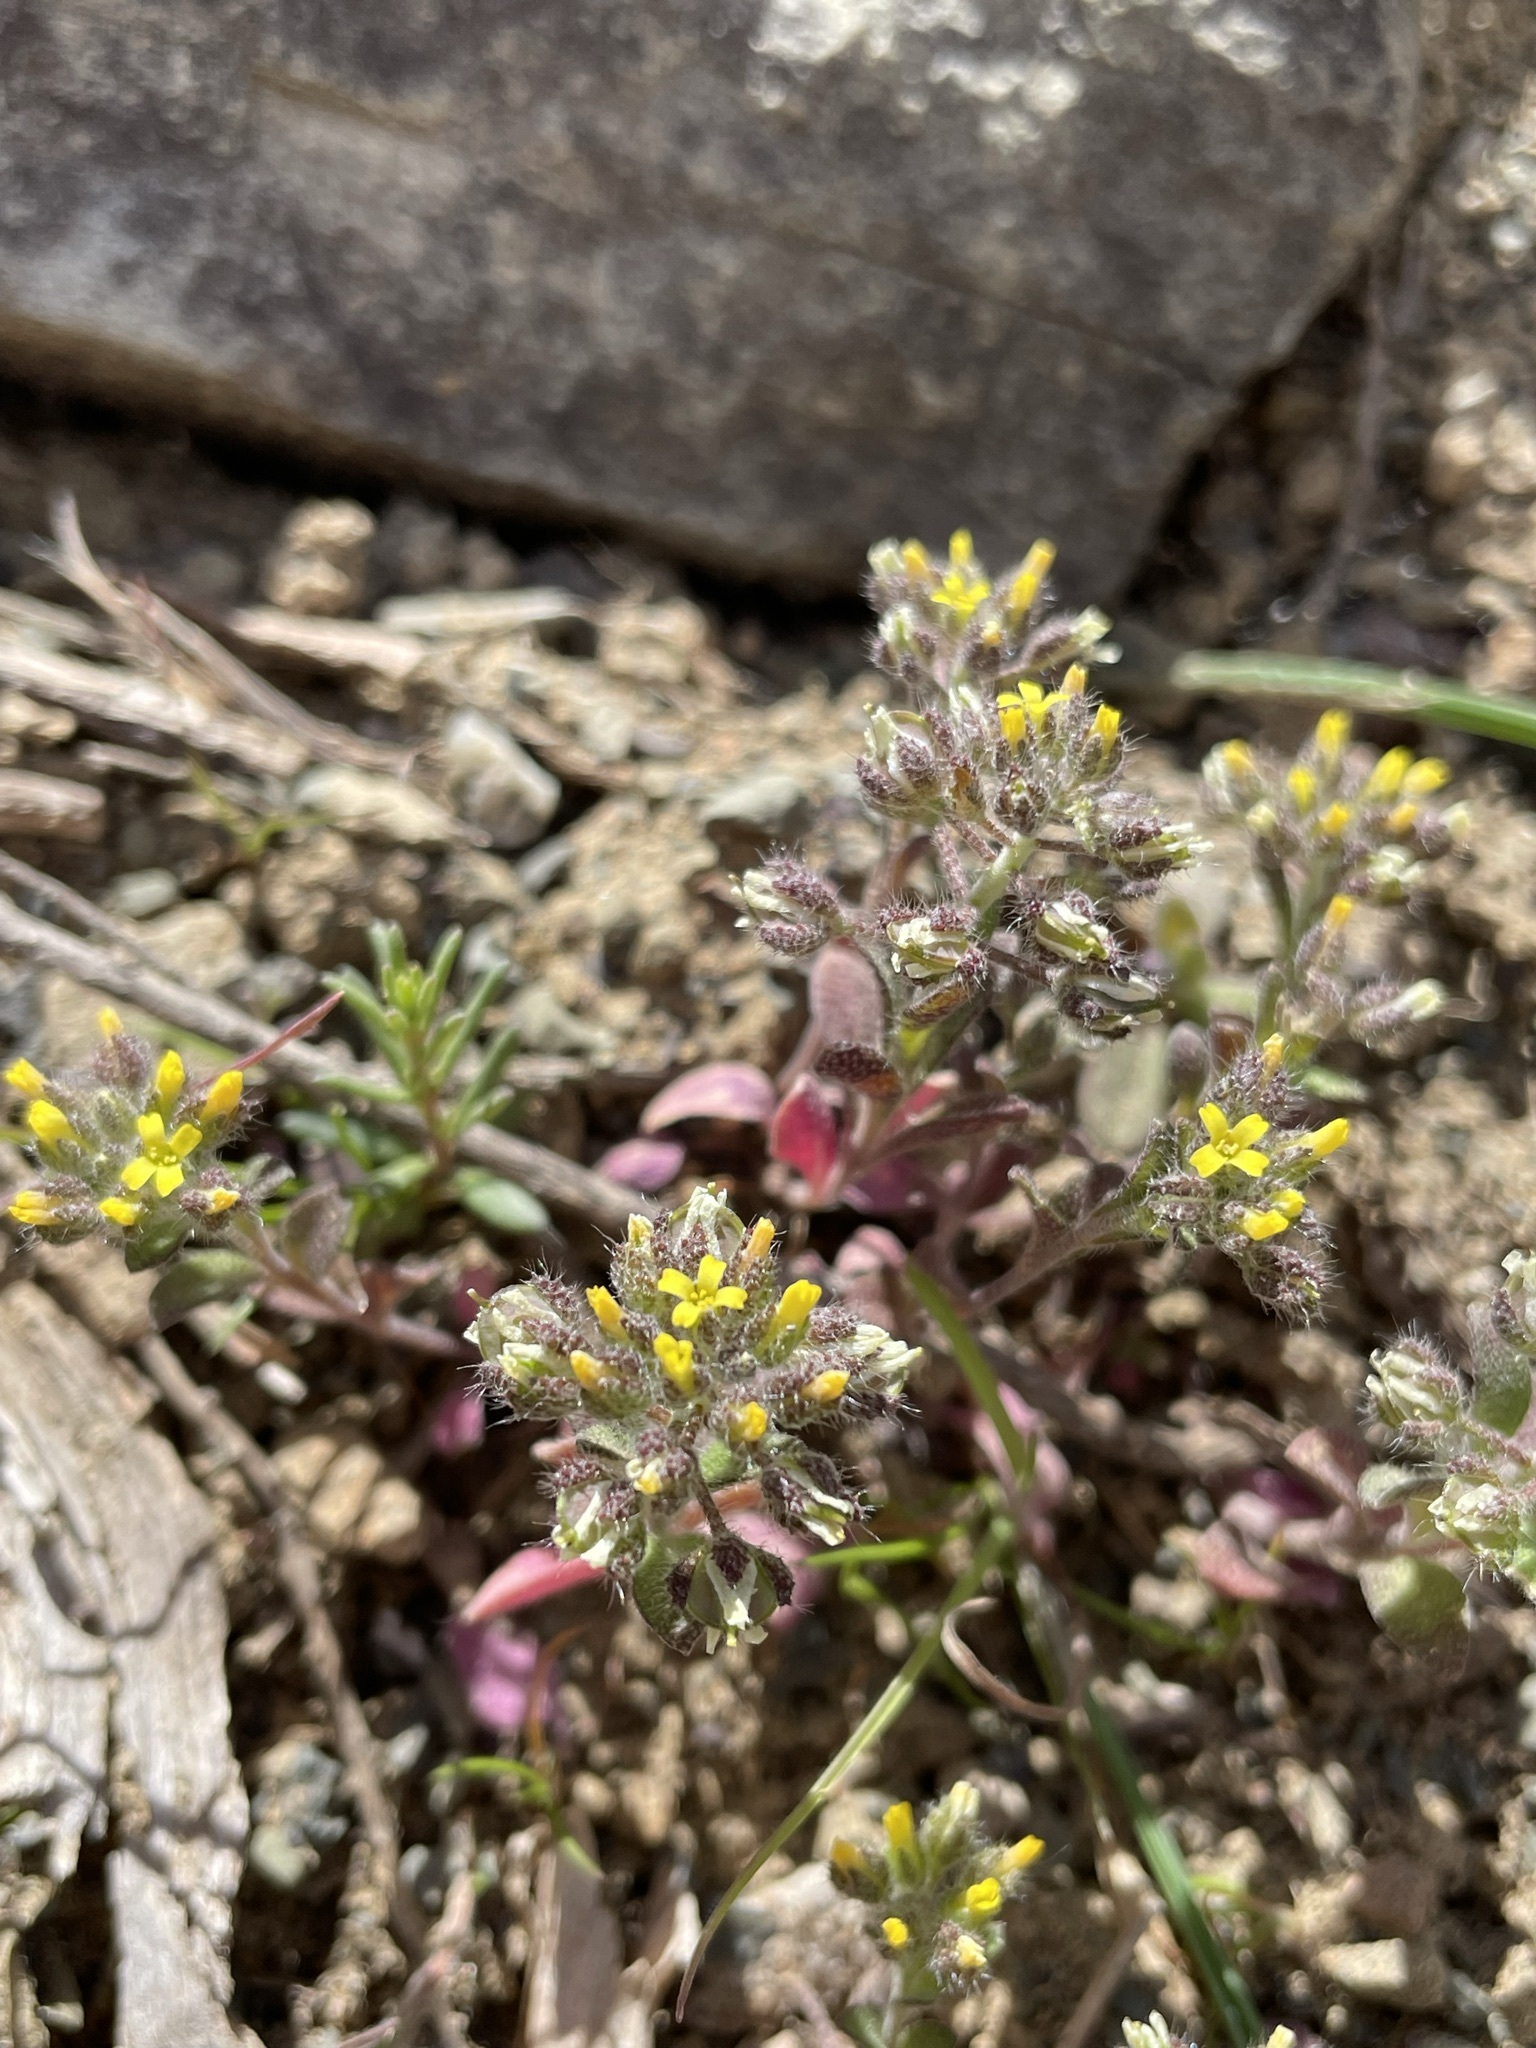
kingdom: Plantae
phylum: Tracheophyta
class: Magnoliopsida
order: Brassicales
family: Brassicaceae
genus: Alyssum
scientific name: Alyssum minutum
